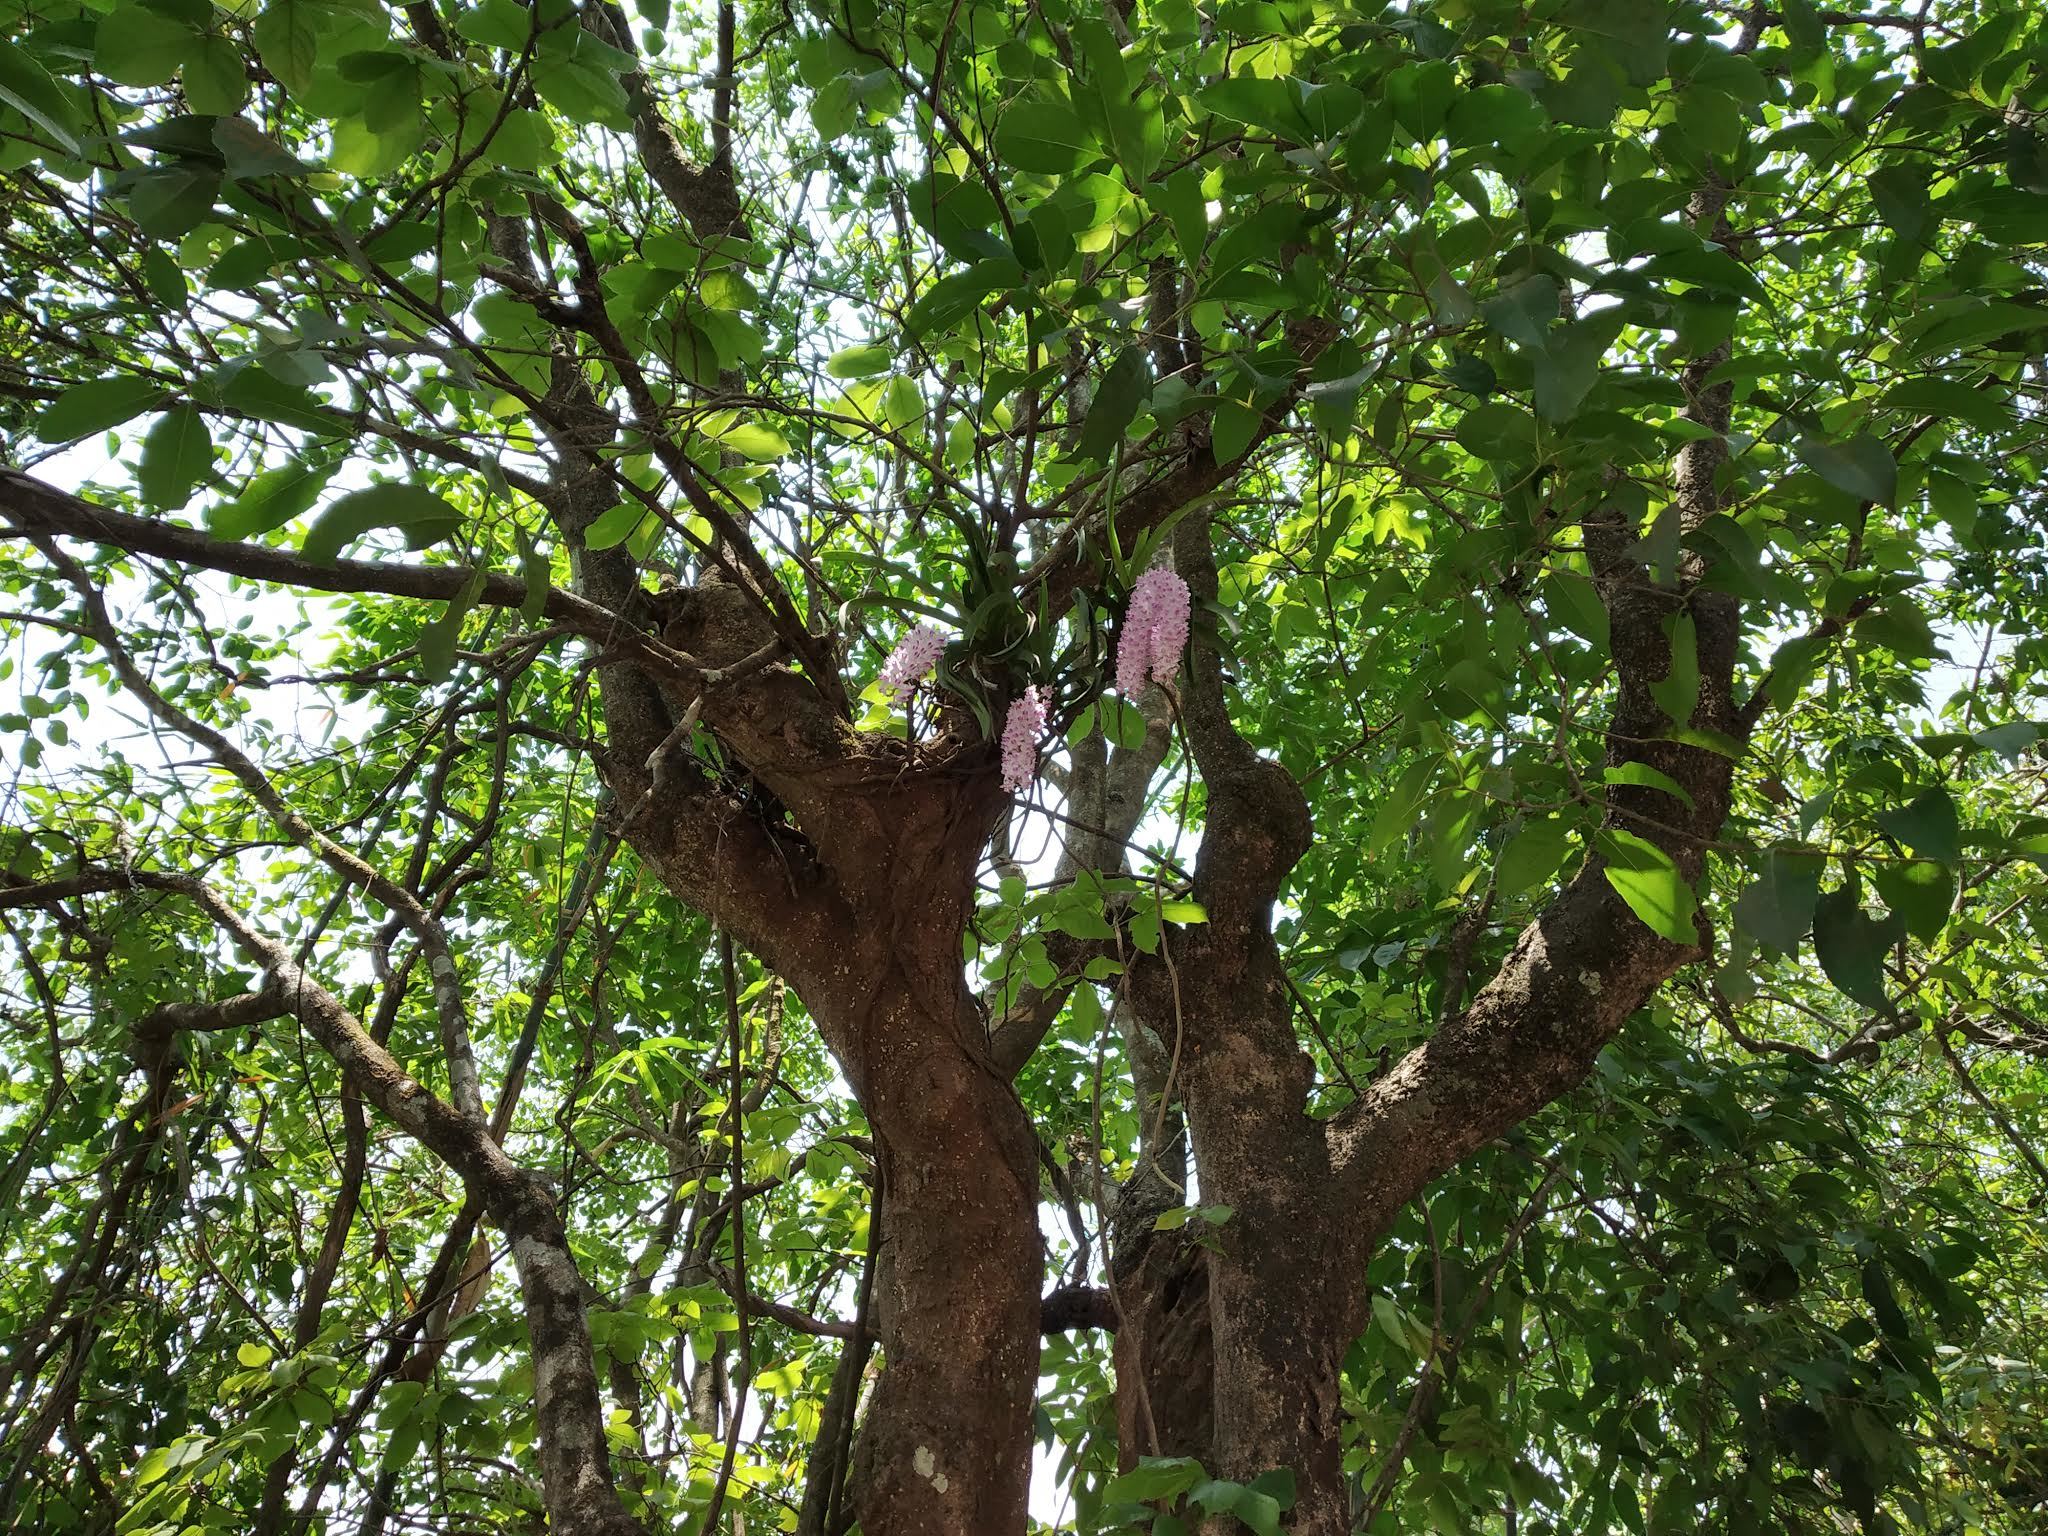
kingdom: Plantae
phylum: Tracheophyta
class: Liliopsida
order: Asparagales
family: Orchidaceae
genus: Rhynchostylis
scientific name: Rhynchostylis retusa
